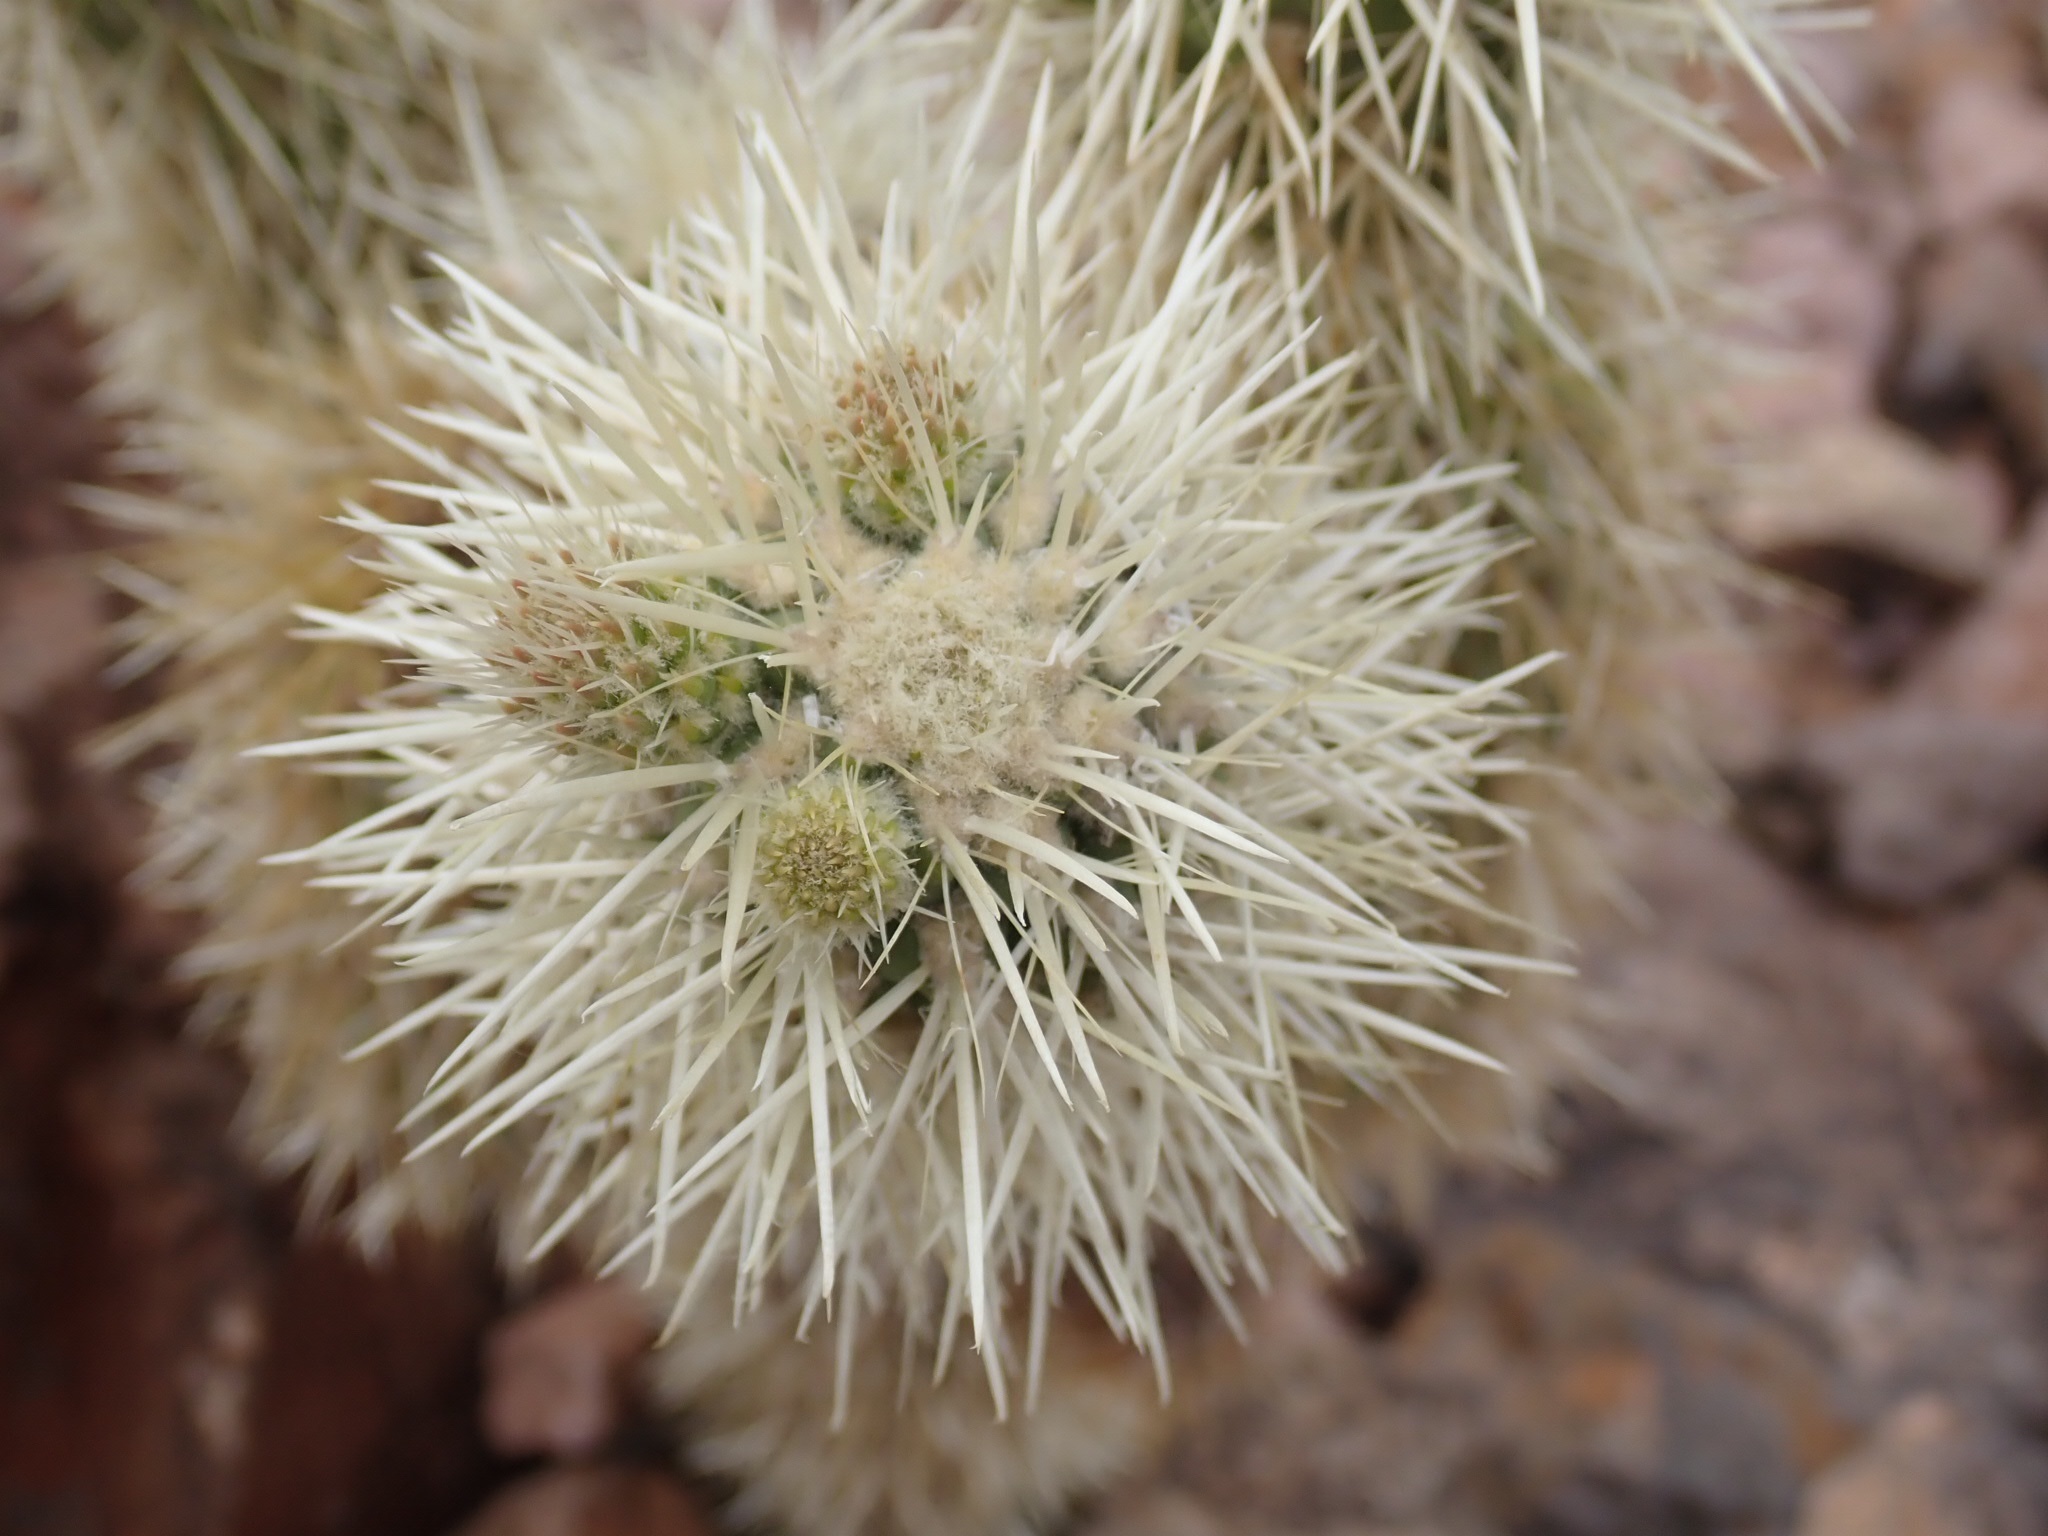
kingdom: Plantae
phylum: Tracheophyta
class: Magnoliopsida
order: Caryophyllales
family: Cactaceae
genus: Cylindropuntia
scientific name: Cylindropuntia fosbergii
